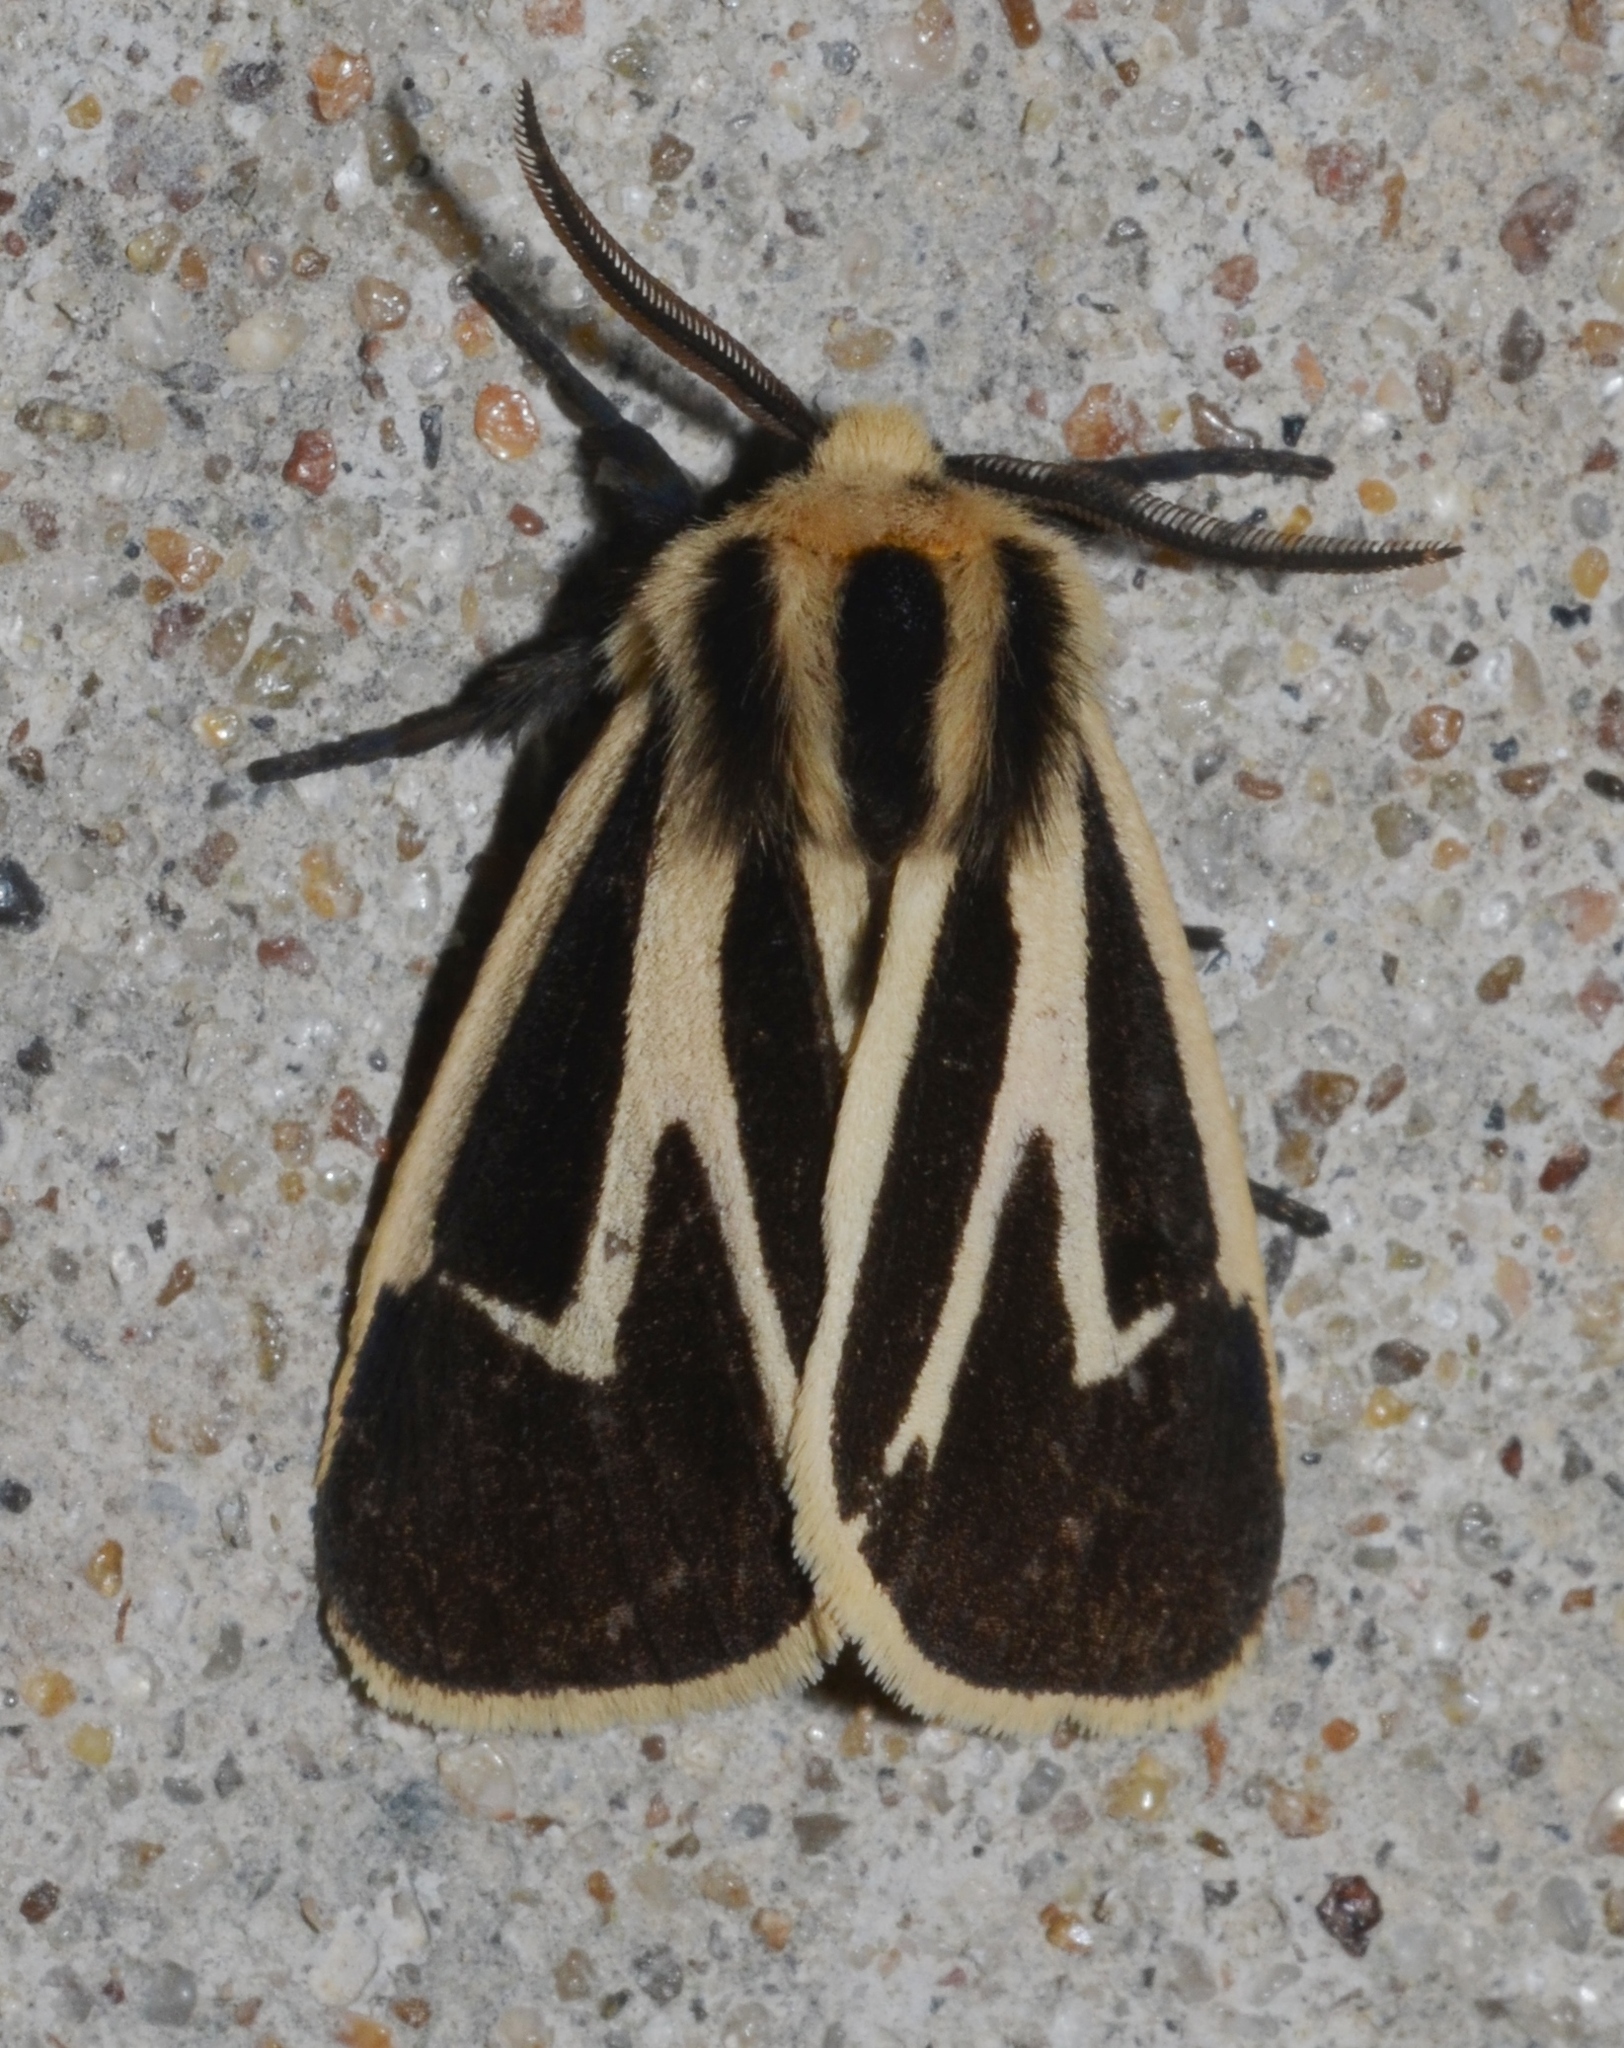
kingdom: Animalia
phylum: Arthropoda
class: Insecta
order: Lepidoptera
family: Erebidae
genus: Apantesis
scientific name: Apantesis nais
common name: Nais tiger moth
